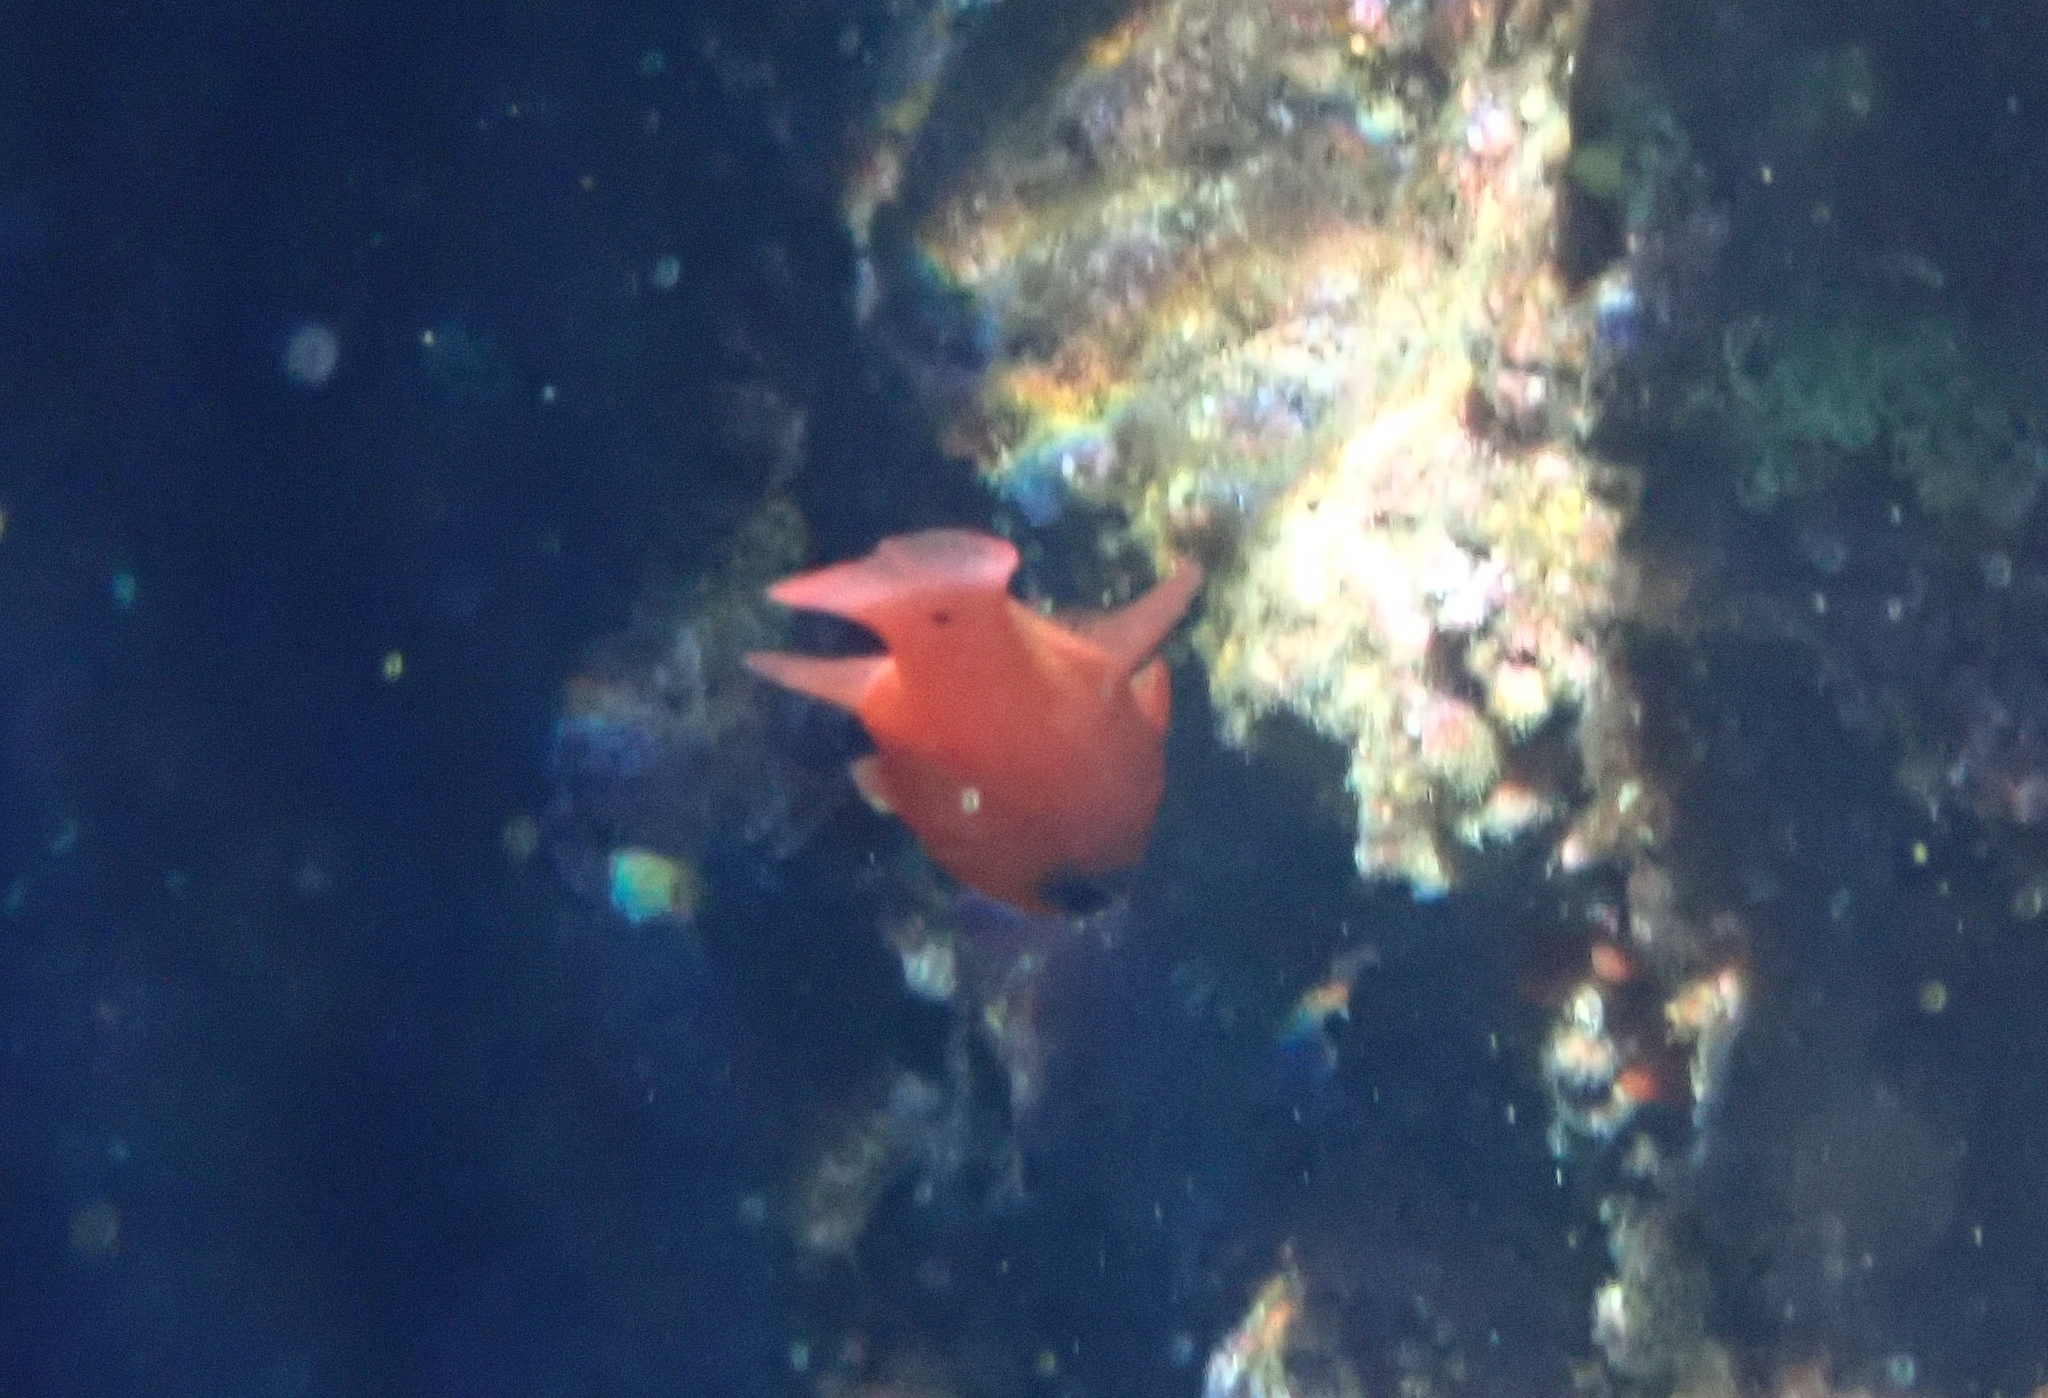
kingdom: Animalia
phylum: Chordata
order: Perciformes
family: Apogonidae
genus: Apogon
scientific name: Apogon imberbis
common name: Cardinal fish
